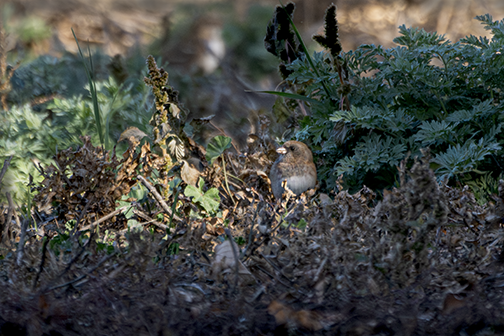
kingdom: Animalia
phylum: Chordata
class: Aves
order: Passeriformes
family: Passerellidae
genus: Junco
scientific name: Junco hyemalis
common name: Dark-eyed junco
